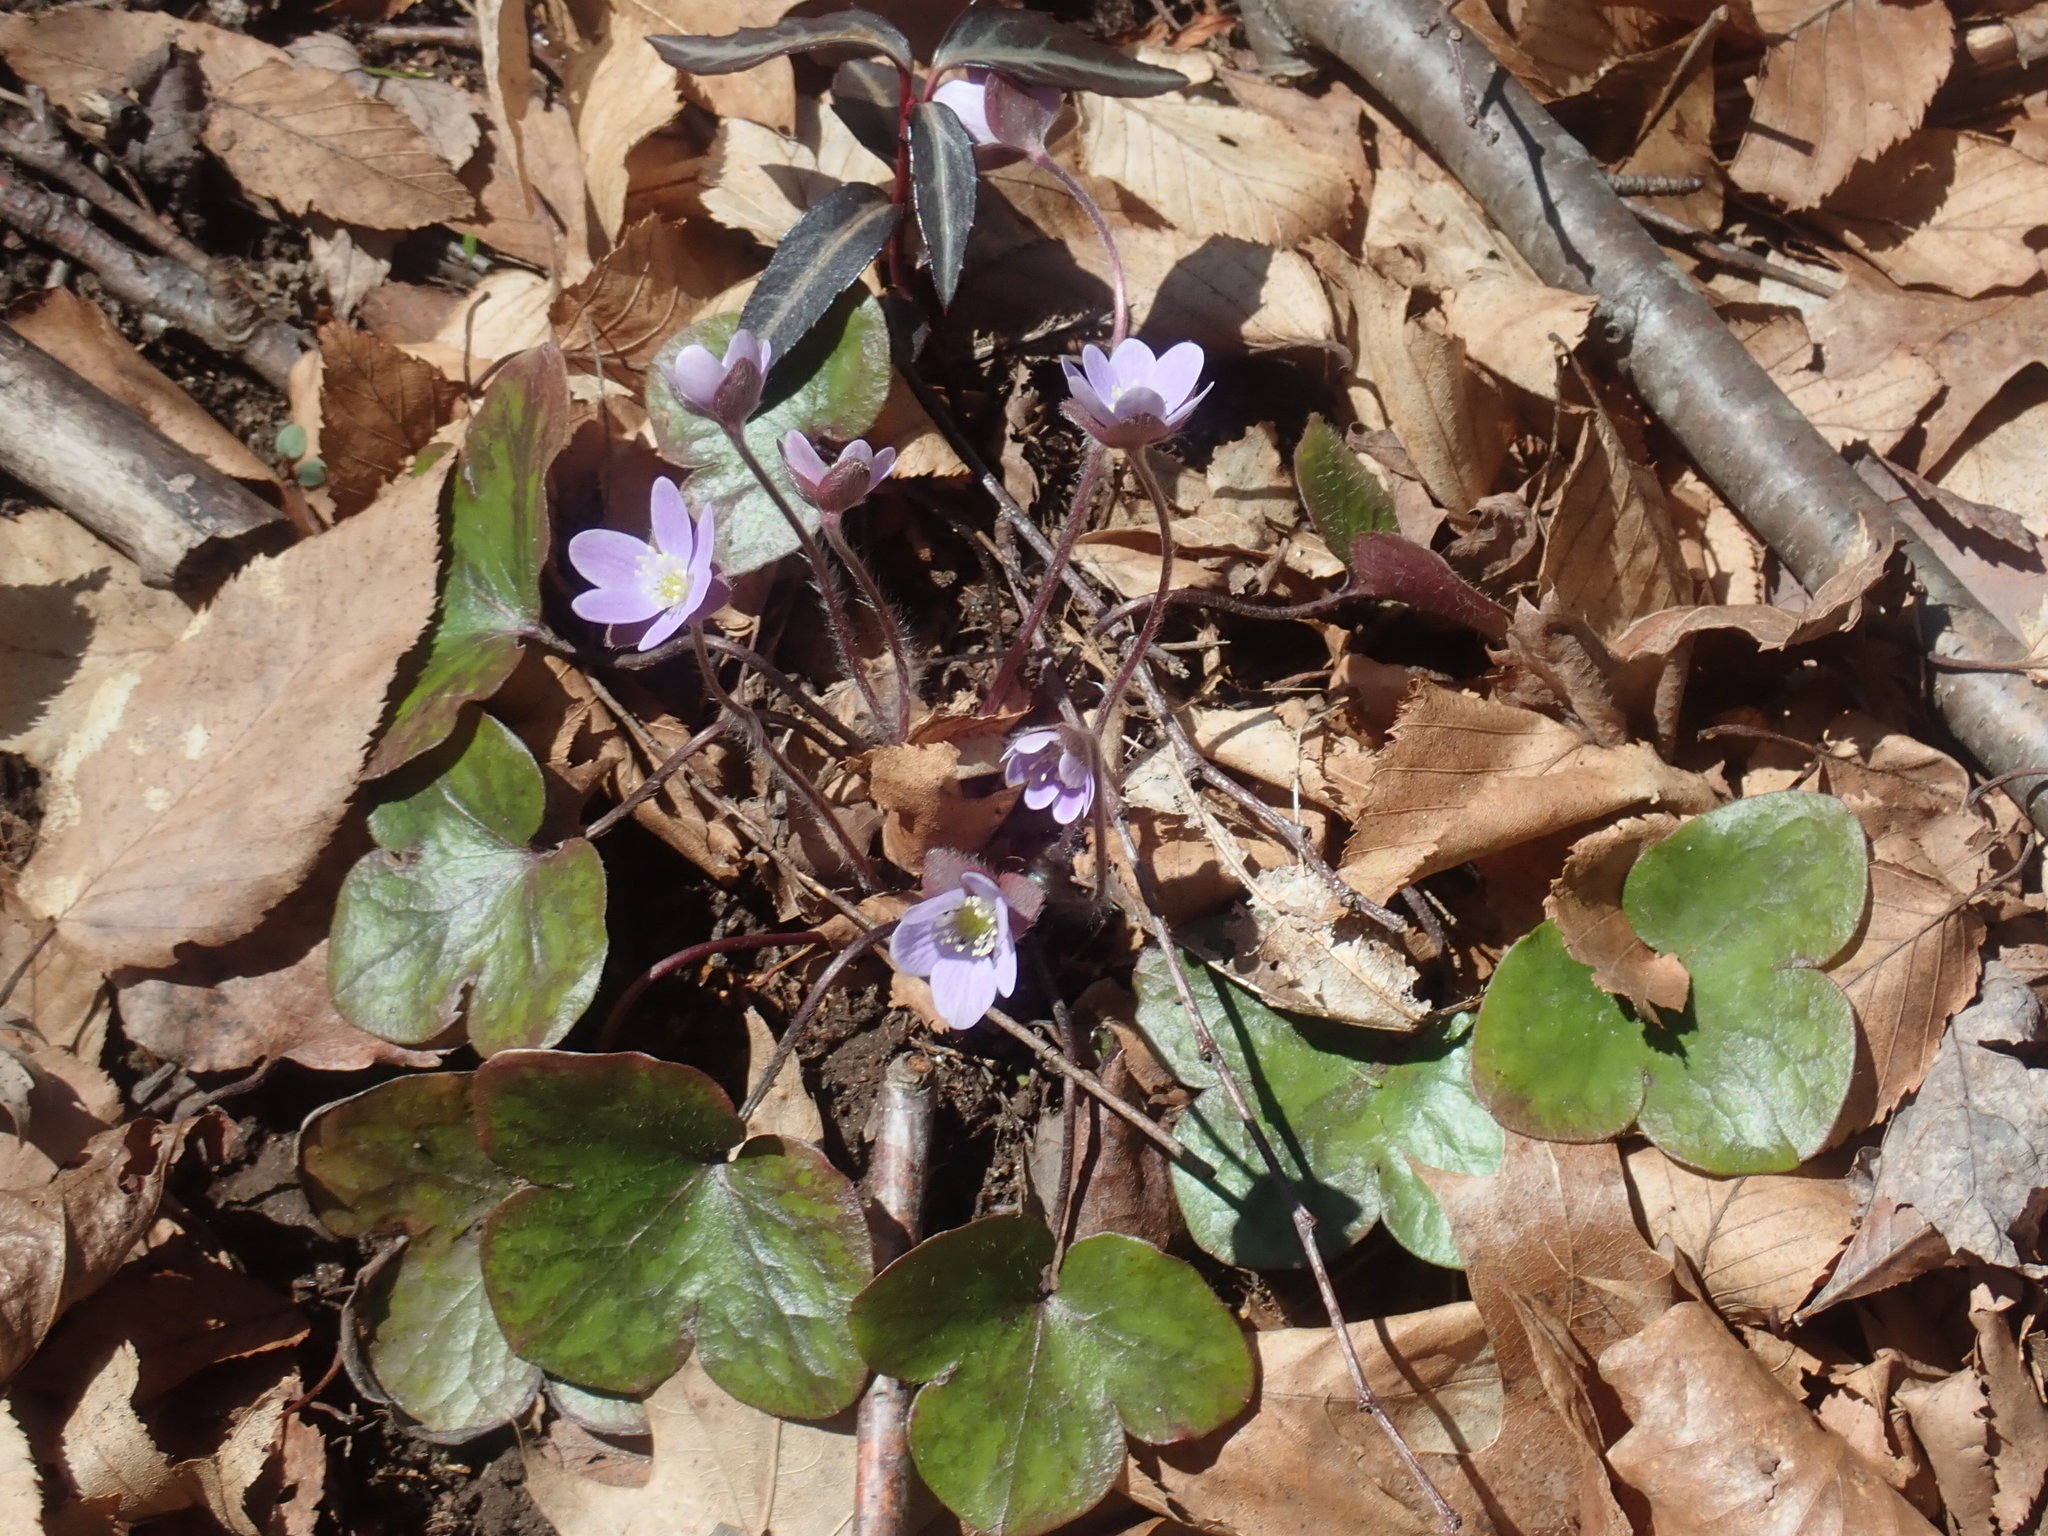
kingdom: Plantae
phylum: Tracheophyta
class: Magnoliopsida
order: Ranunculales
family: Ranunculaceae
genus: Hepatica
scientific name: Hepatica americana
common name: American hepatica
